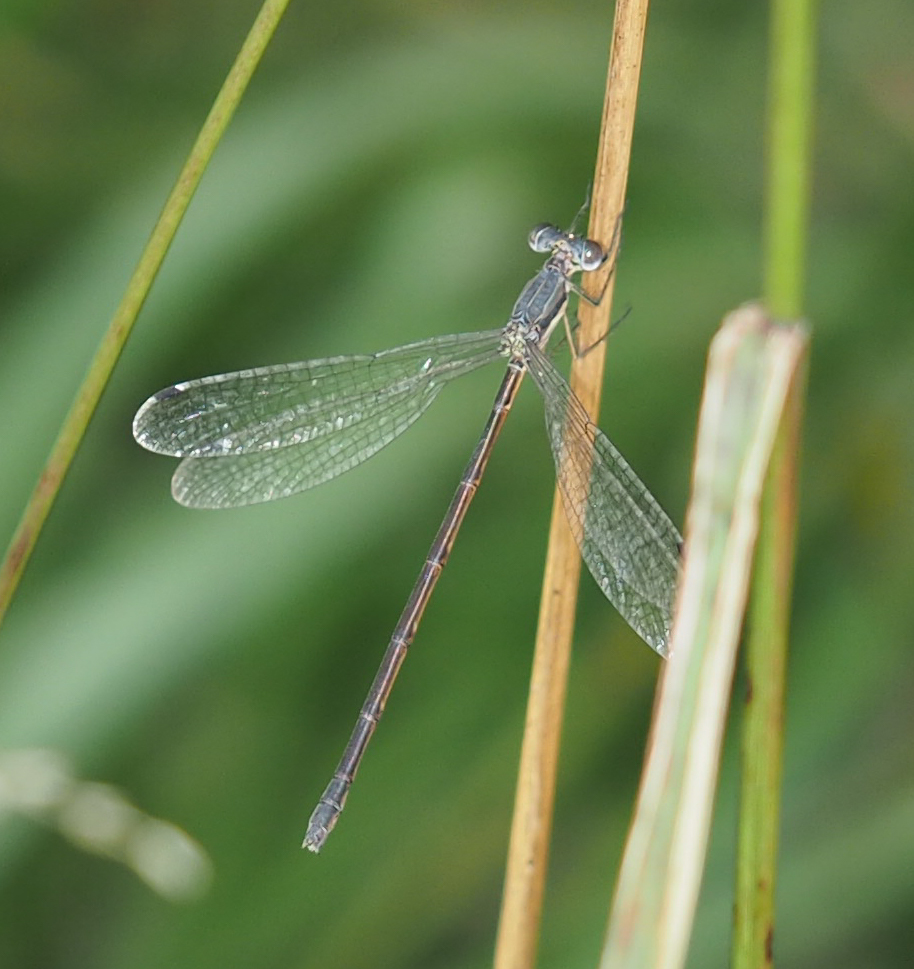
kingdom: Animalia
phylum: Arthropoda
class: Insecta
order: Odonata
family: Lestidae
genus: Lestes
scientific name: Lestes rectangularis
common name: Slender spreadwing
